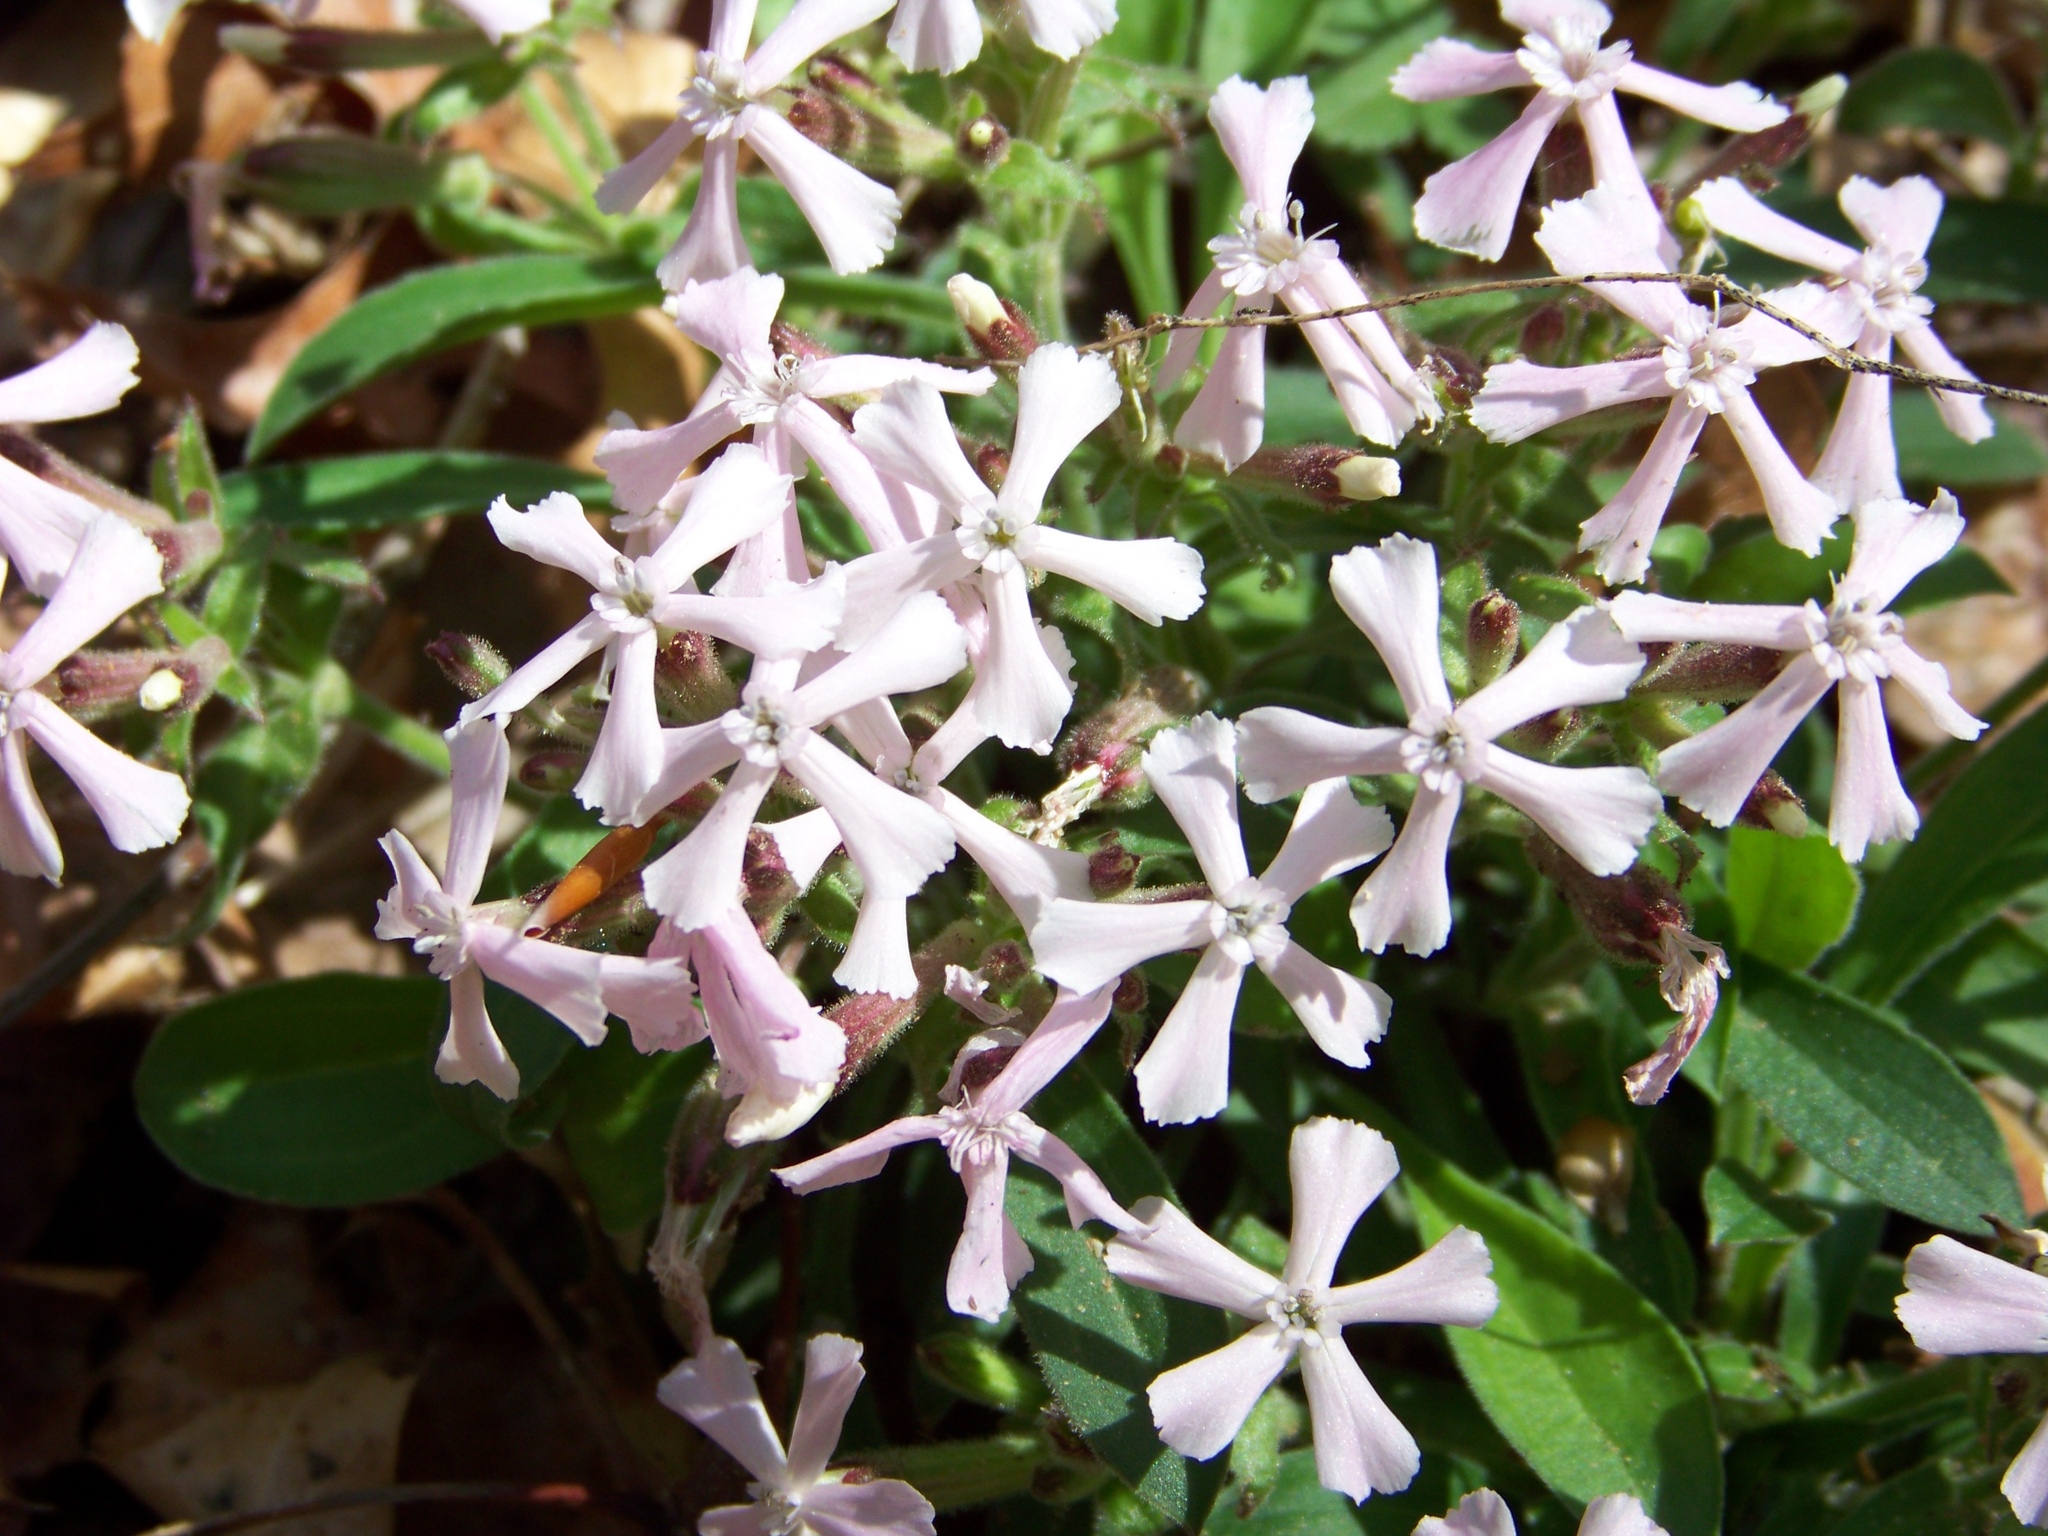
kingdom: Plantae
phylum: Tracheophyta
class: Magnoliopsida
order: Caryophyllales
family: Caryophyllaceae
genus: Silene
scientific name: Silene caroliniana
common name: Sticky catchfly
